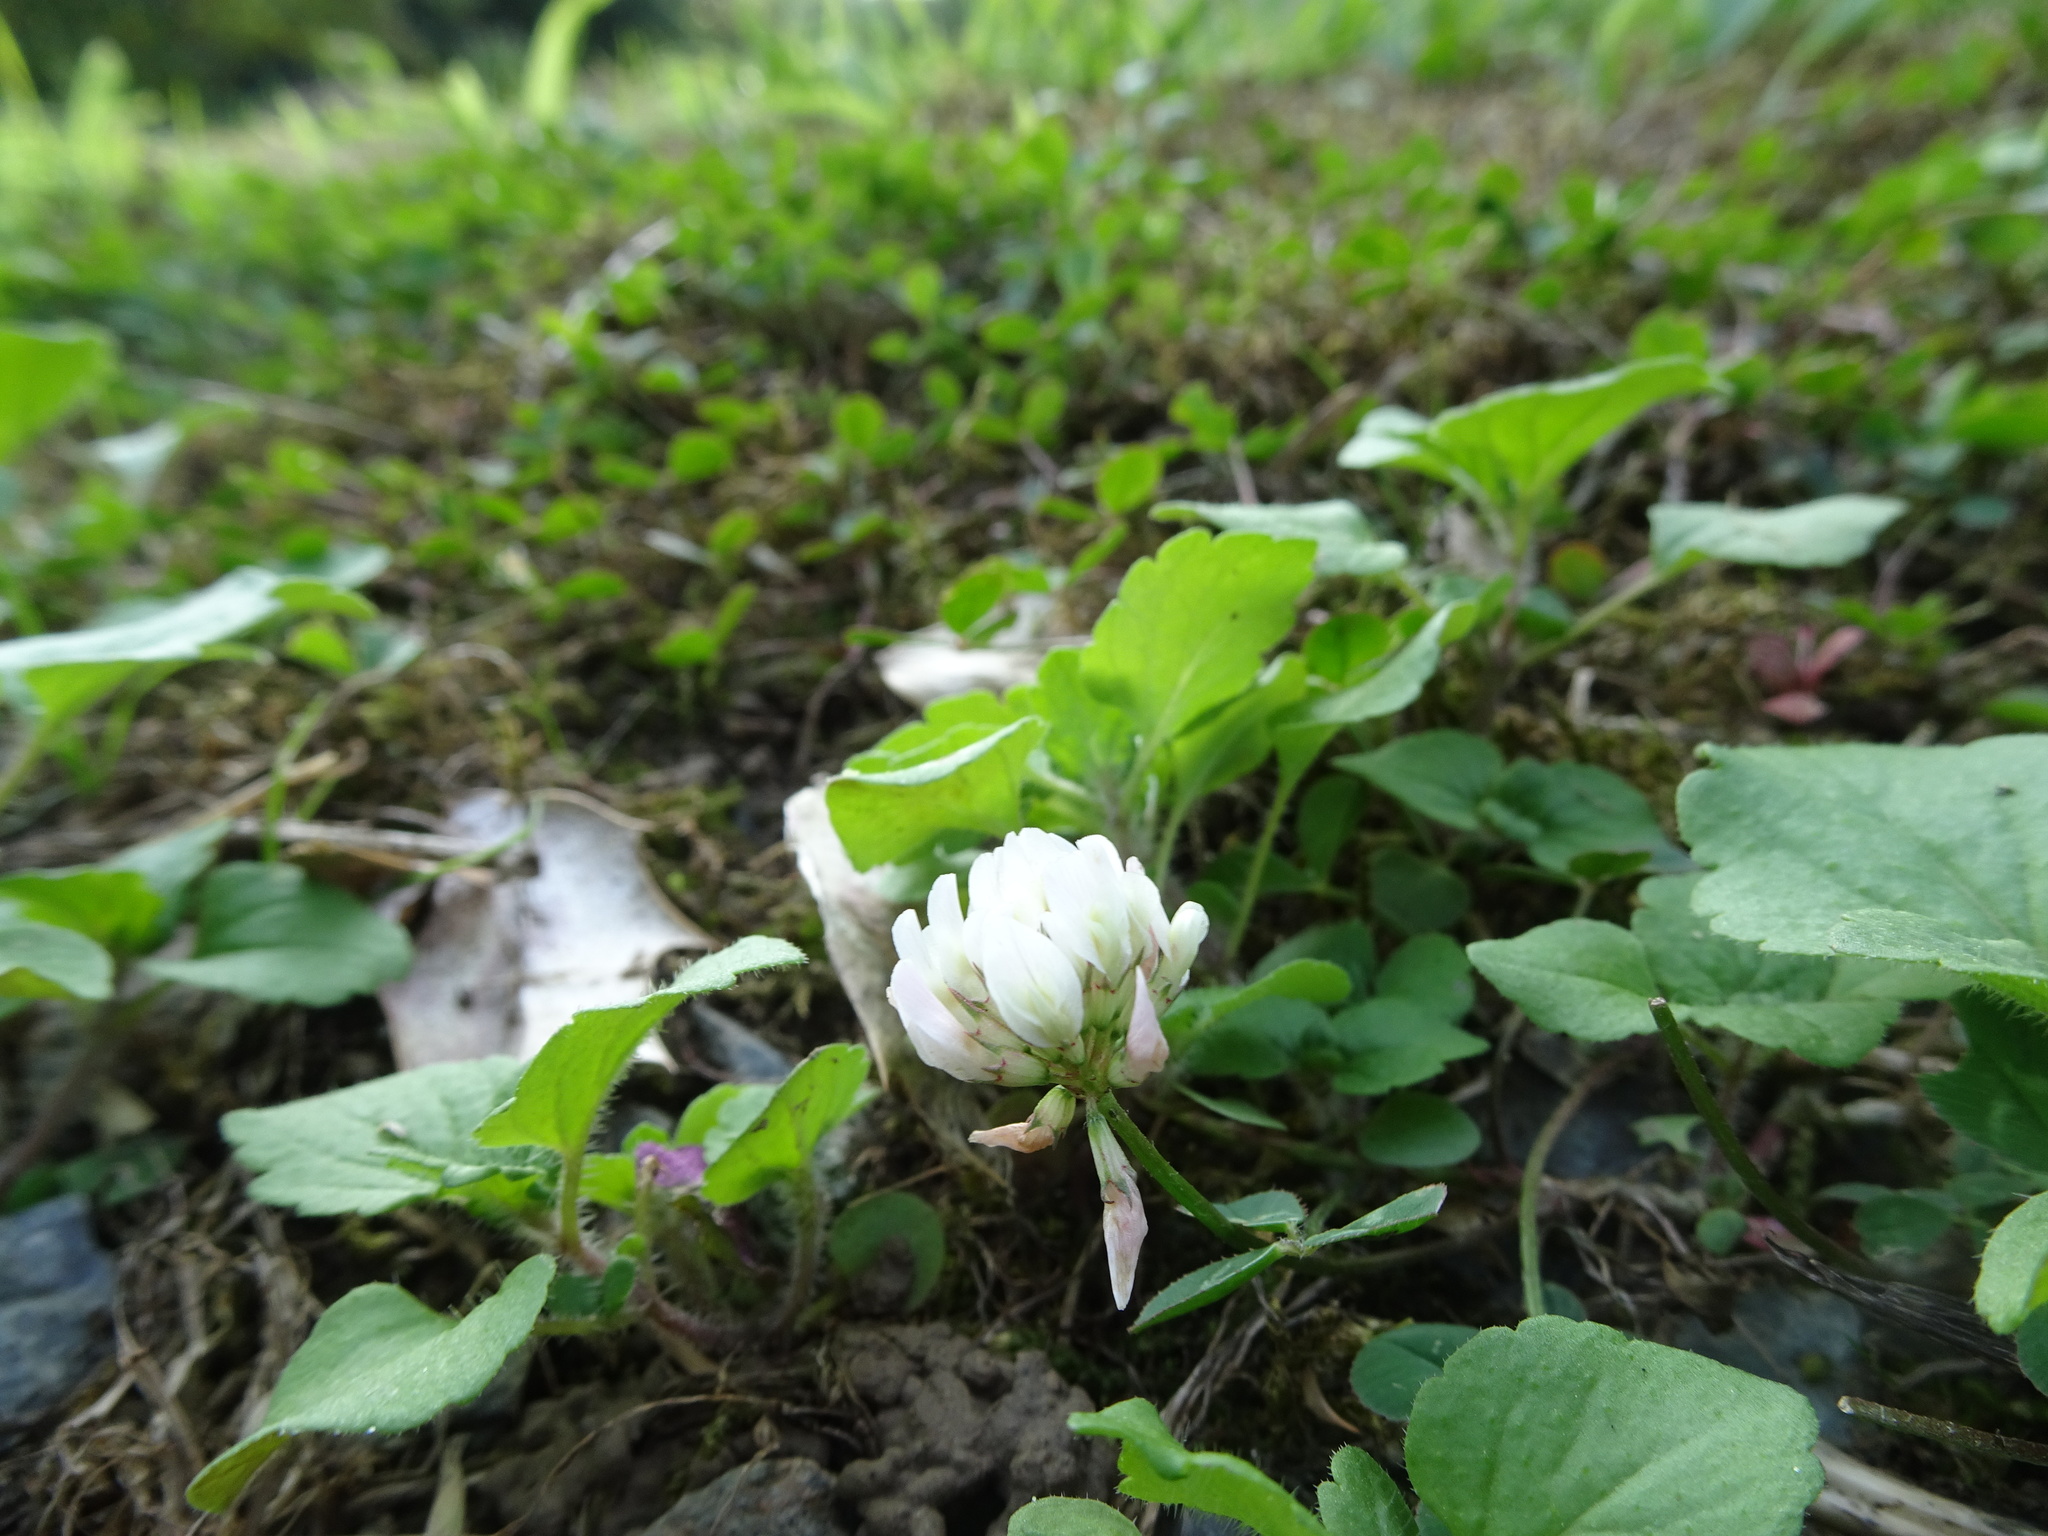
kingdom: Plantae
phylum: Tracheophyta
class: Magnoliopsida
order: Fabales
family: Fabaceae
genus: Trifolium
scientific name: Trifolium repens
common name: White clover
